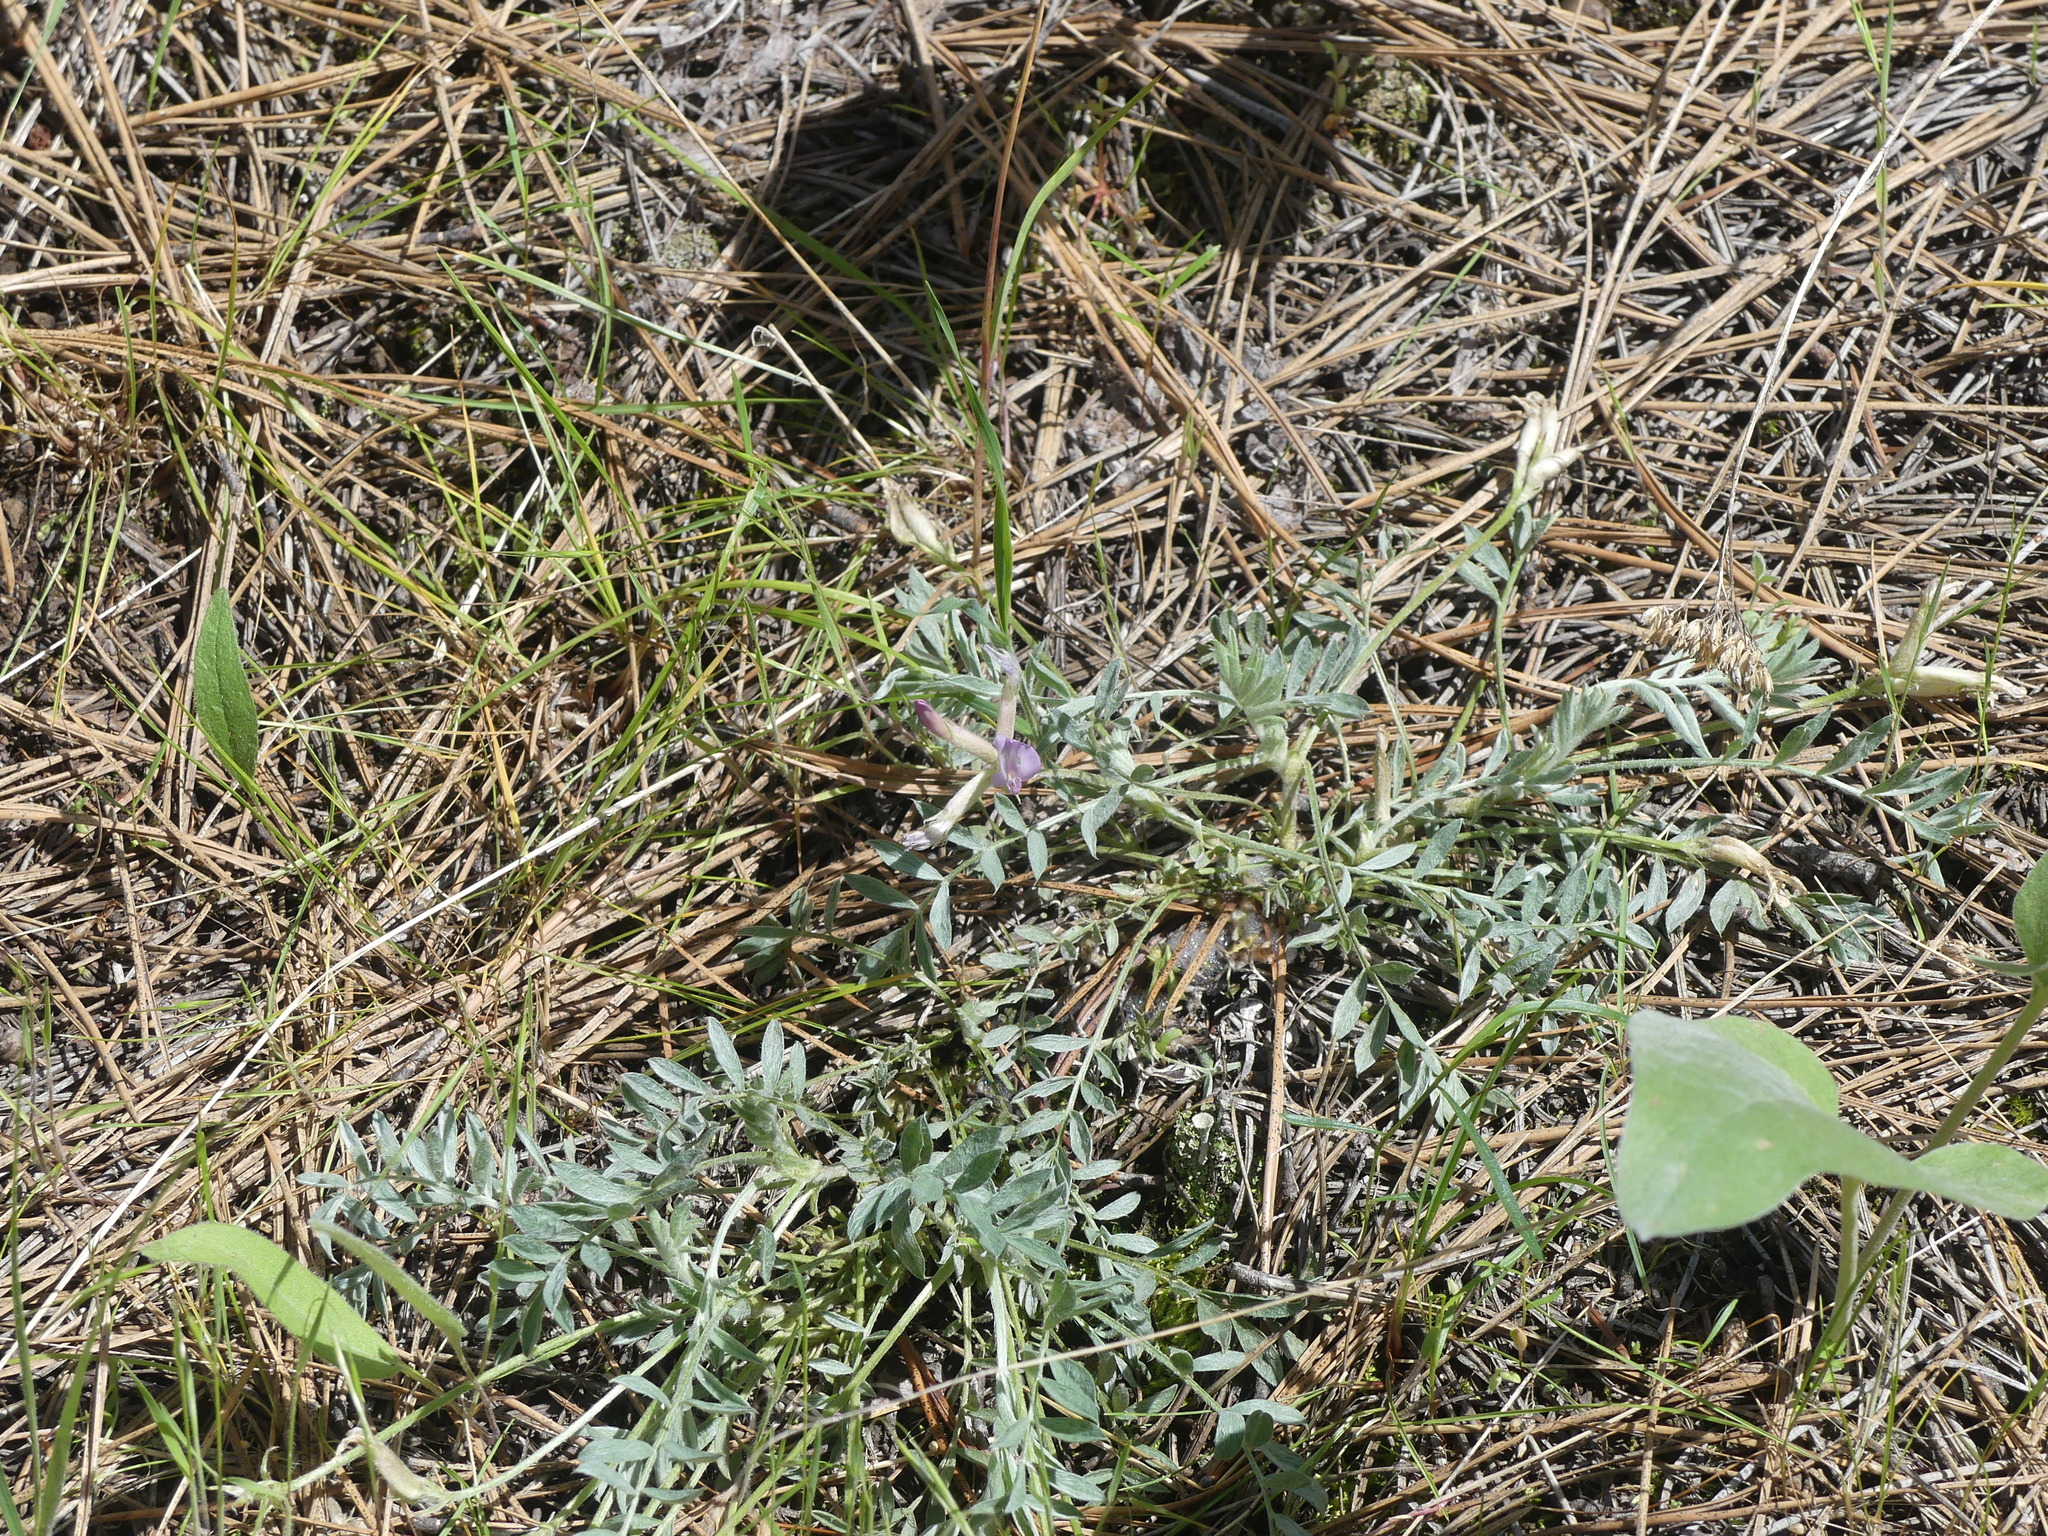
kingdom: Plantae
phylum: Tracheophyta
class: Magnoliopsida
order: Fabales
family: Fabaceae
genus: Astragalus
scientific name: Astragalus purshii
